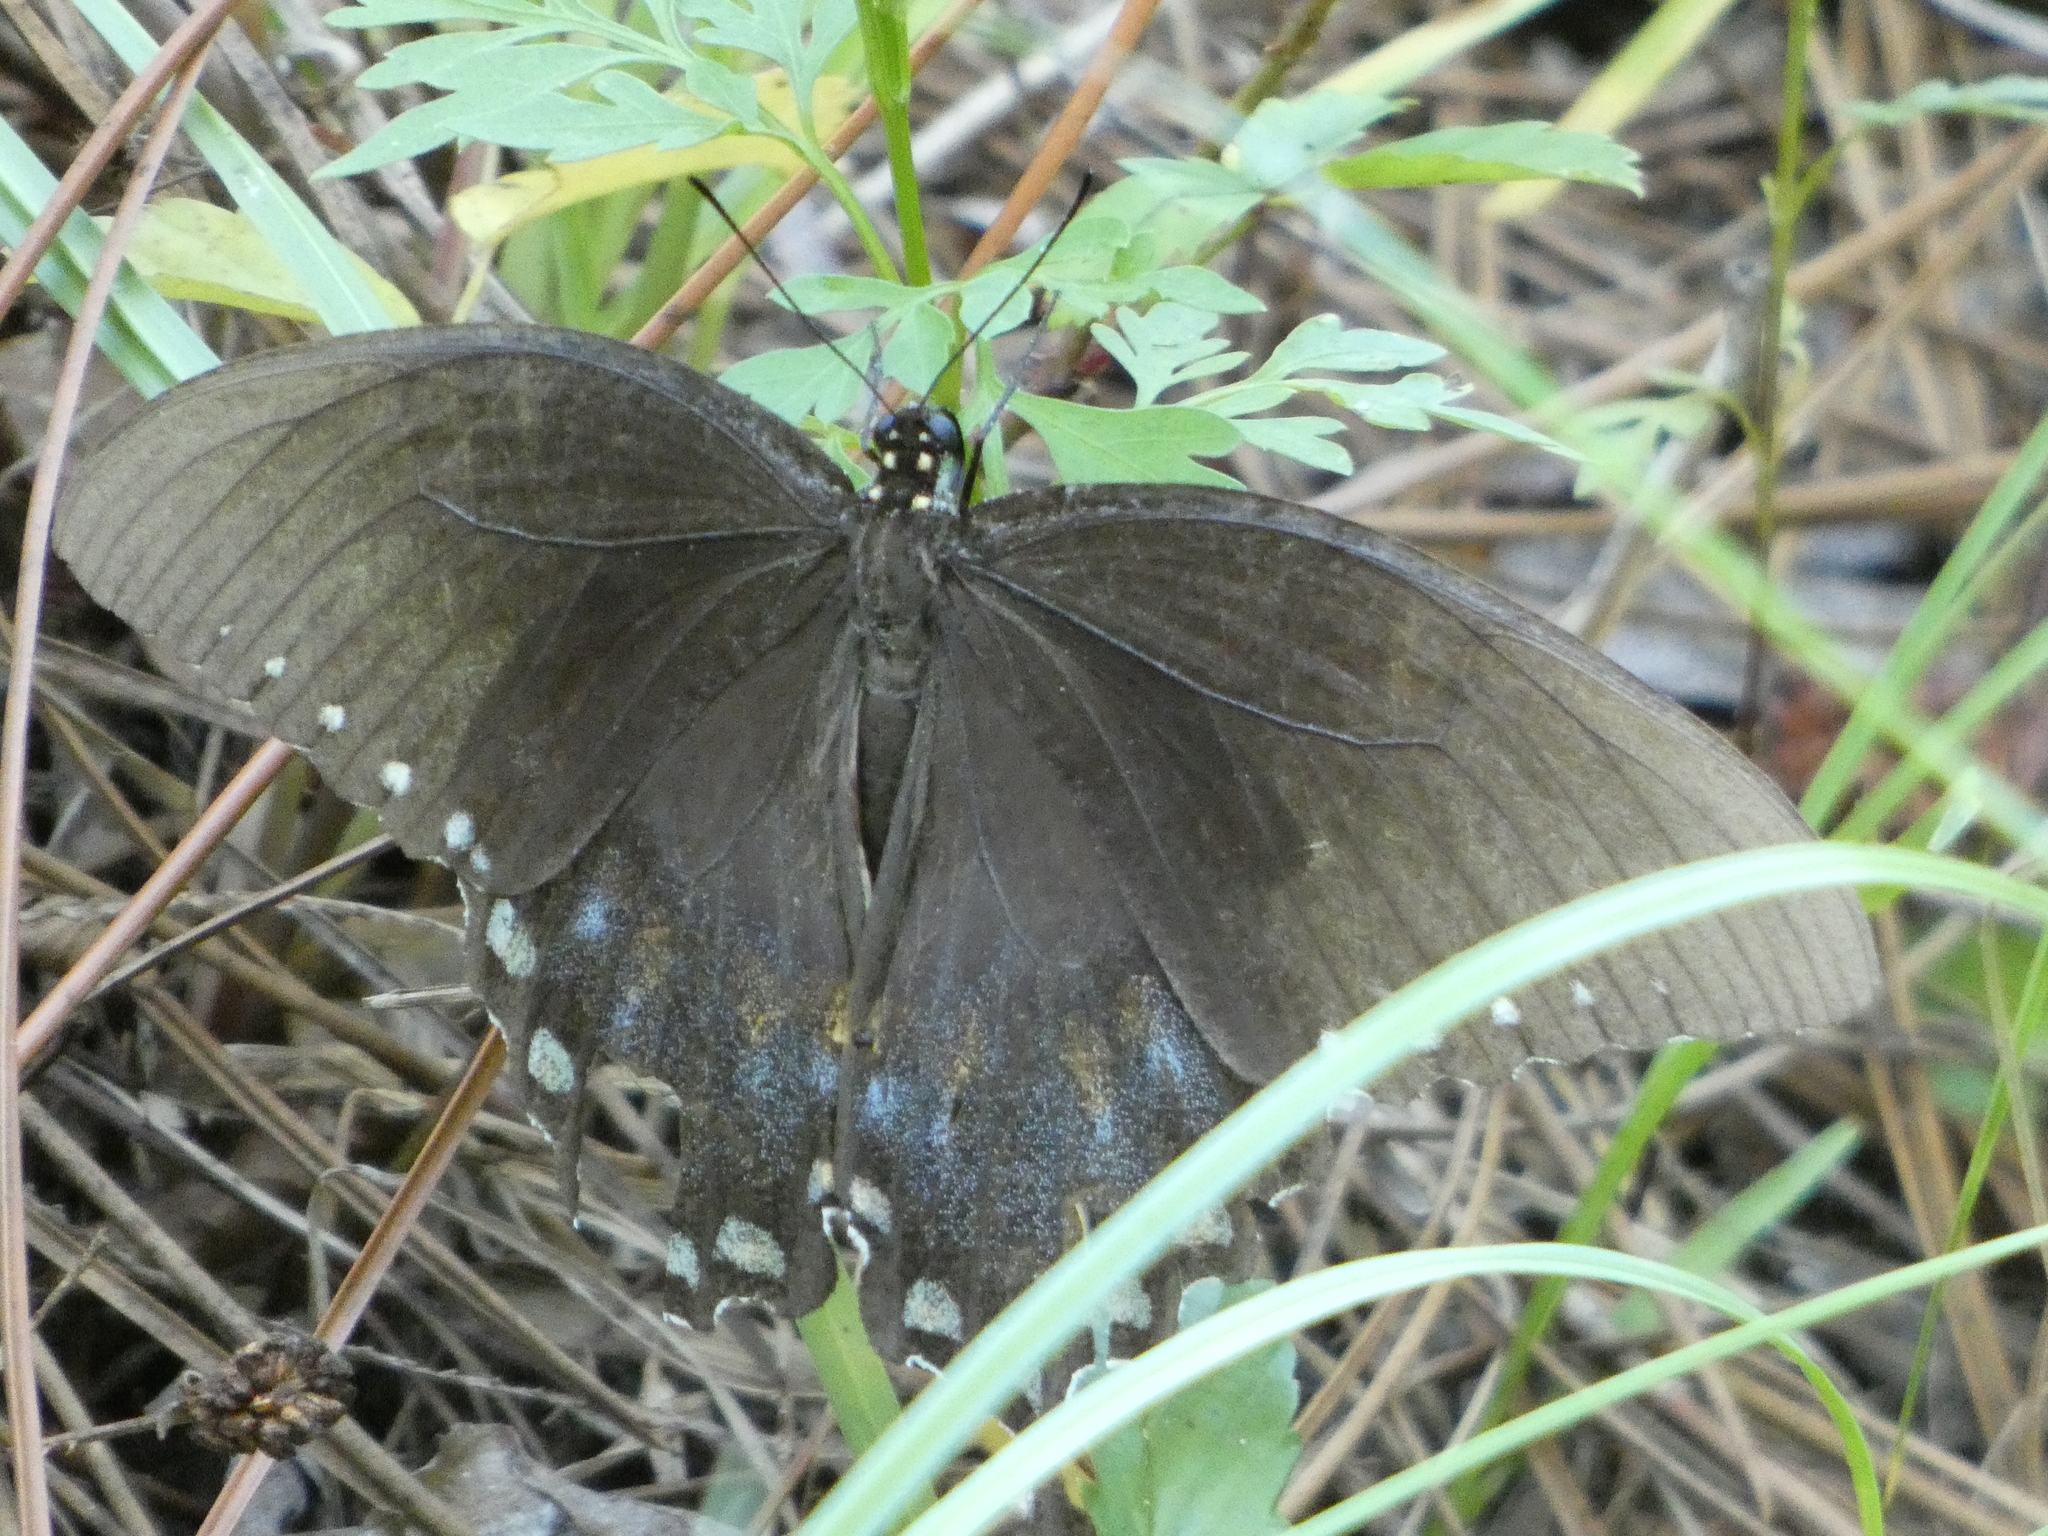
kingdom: Animalia
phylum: Arthropoda
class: Insecta
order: Lepidoptera
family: Papilionidae
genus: Papilio
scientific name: Papilio troilus
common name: Spicebush swallowtail
